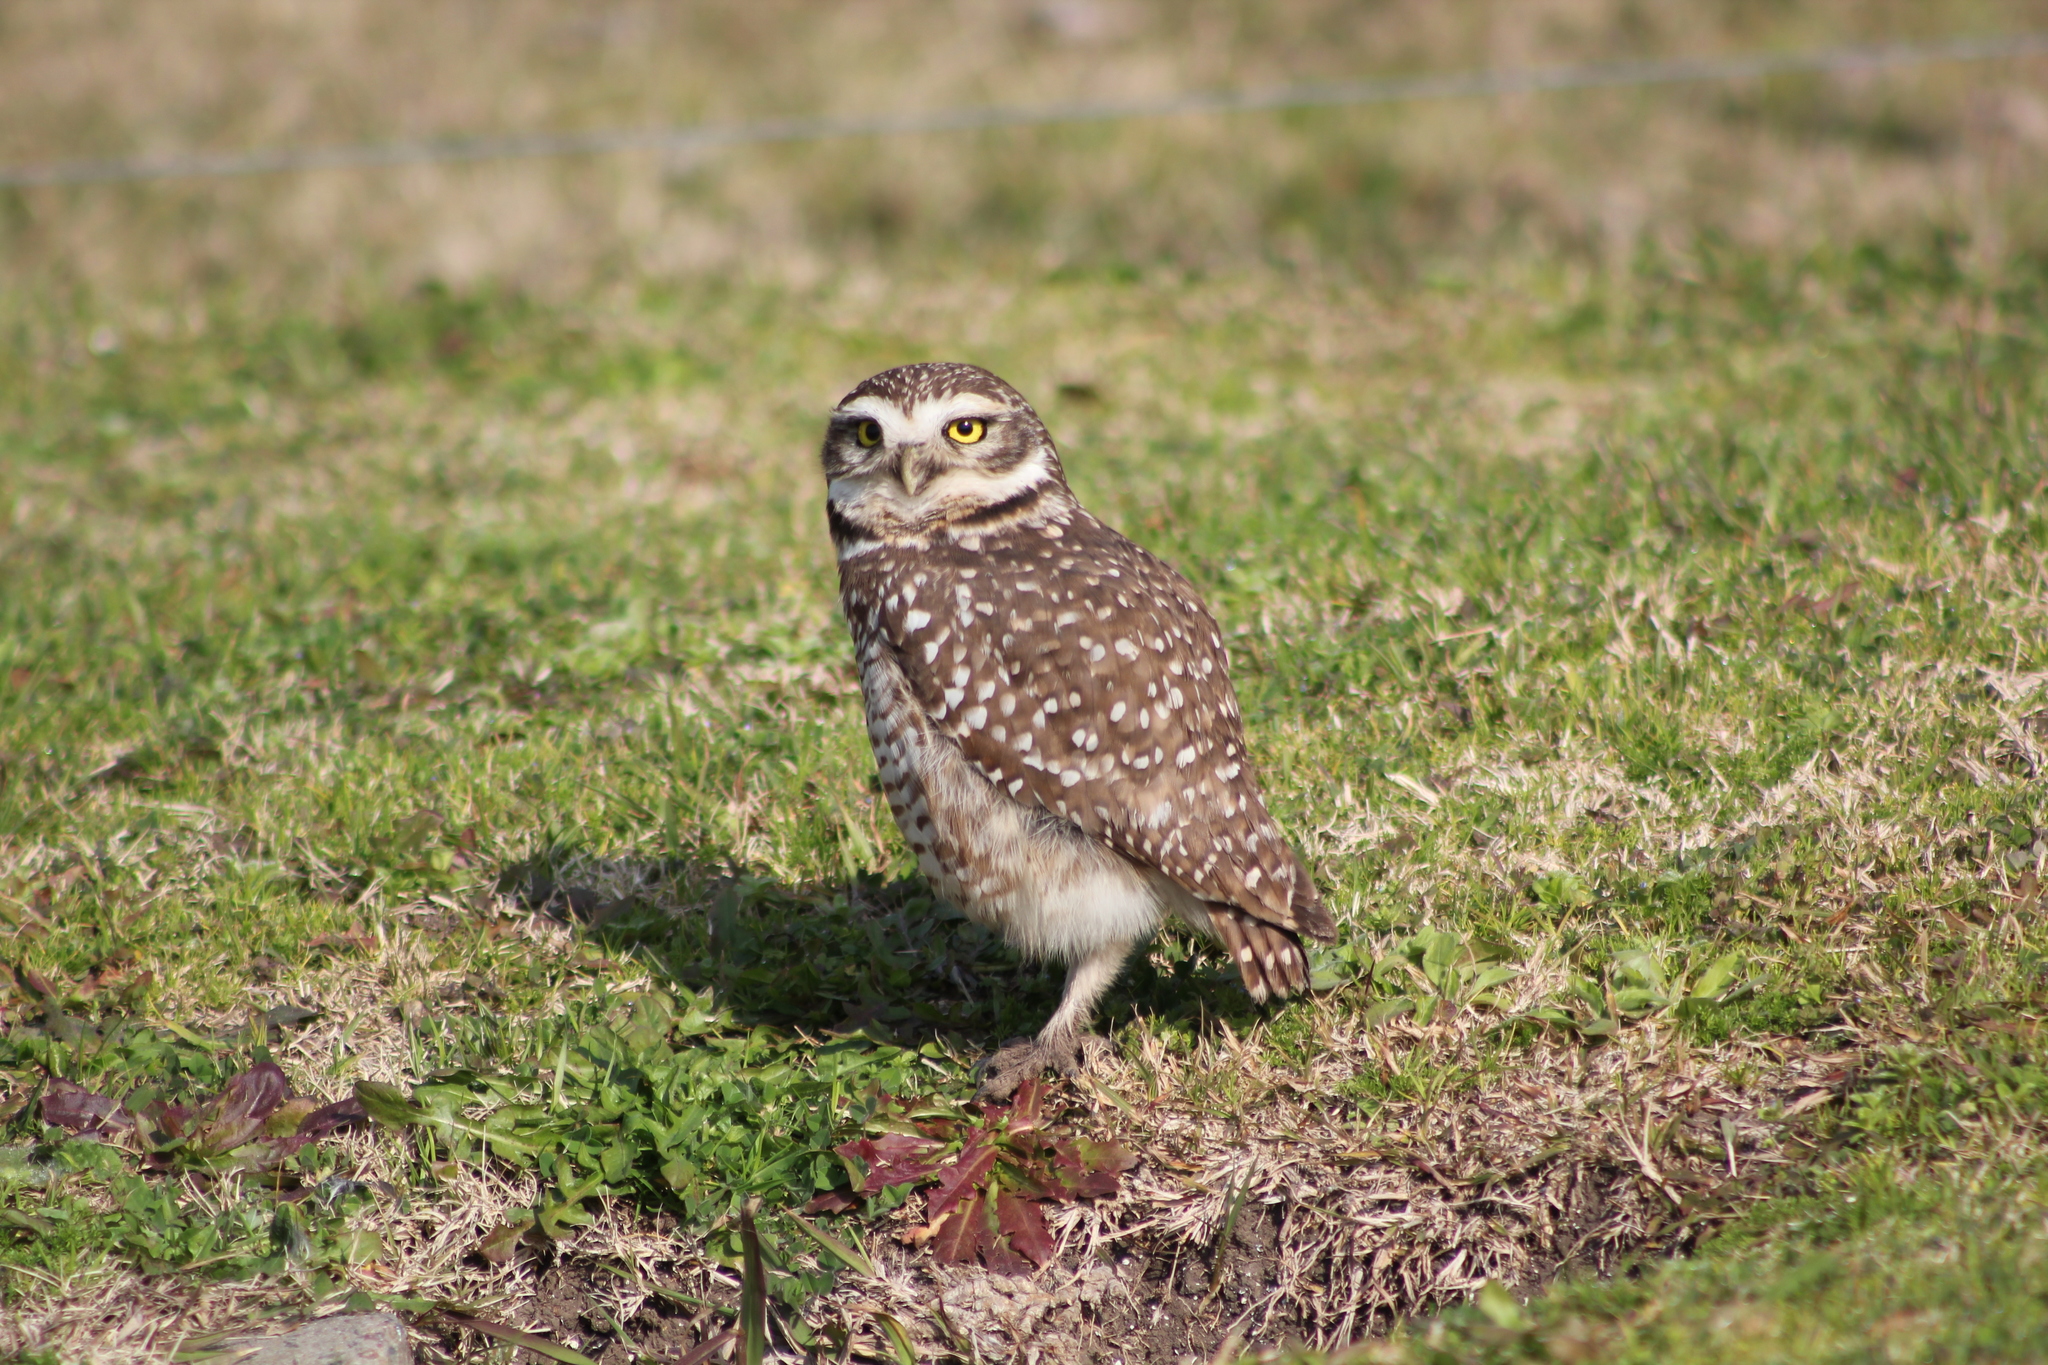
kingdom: Animalia
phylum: Chordata
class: Aves
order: Strigiformes
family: Strigidae
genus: Athene
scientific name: Athene cunicularia
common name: Burrowing owl
